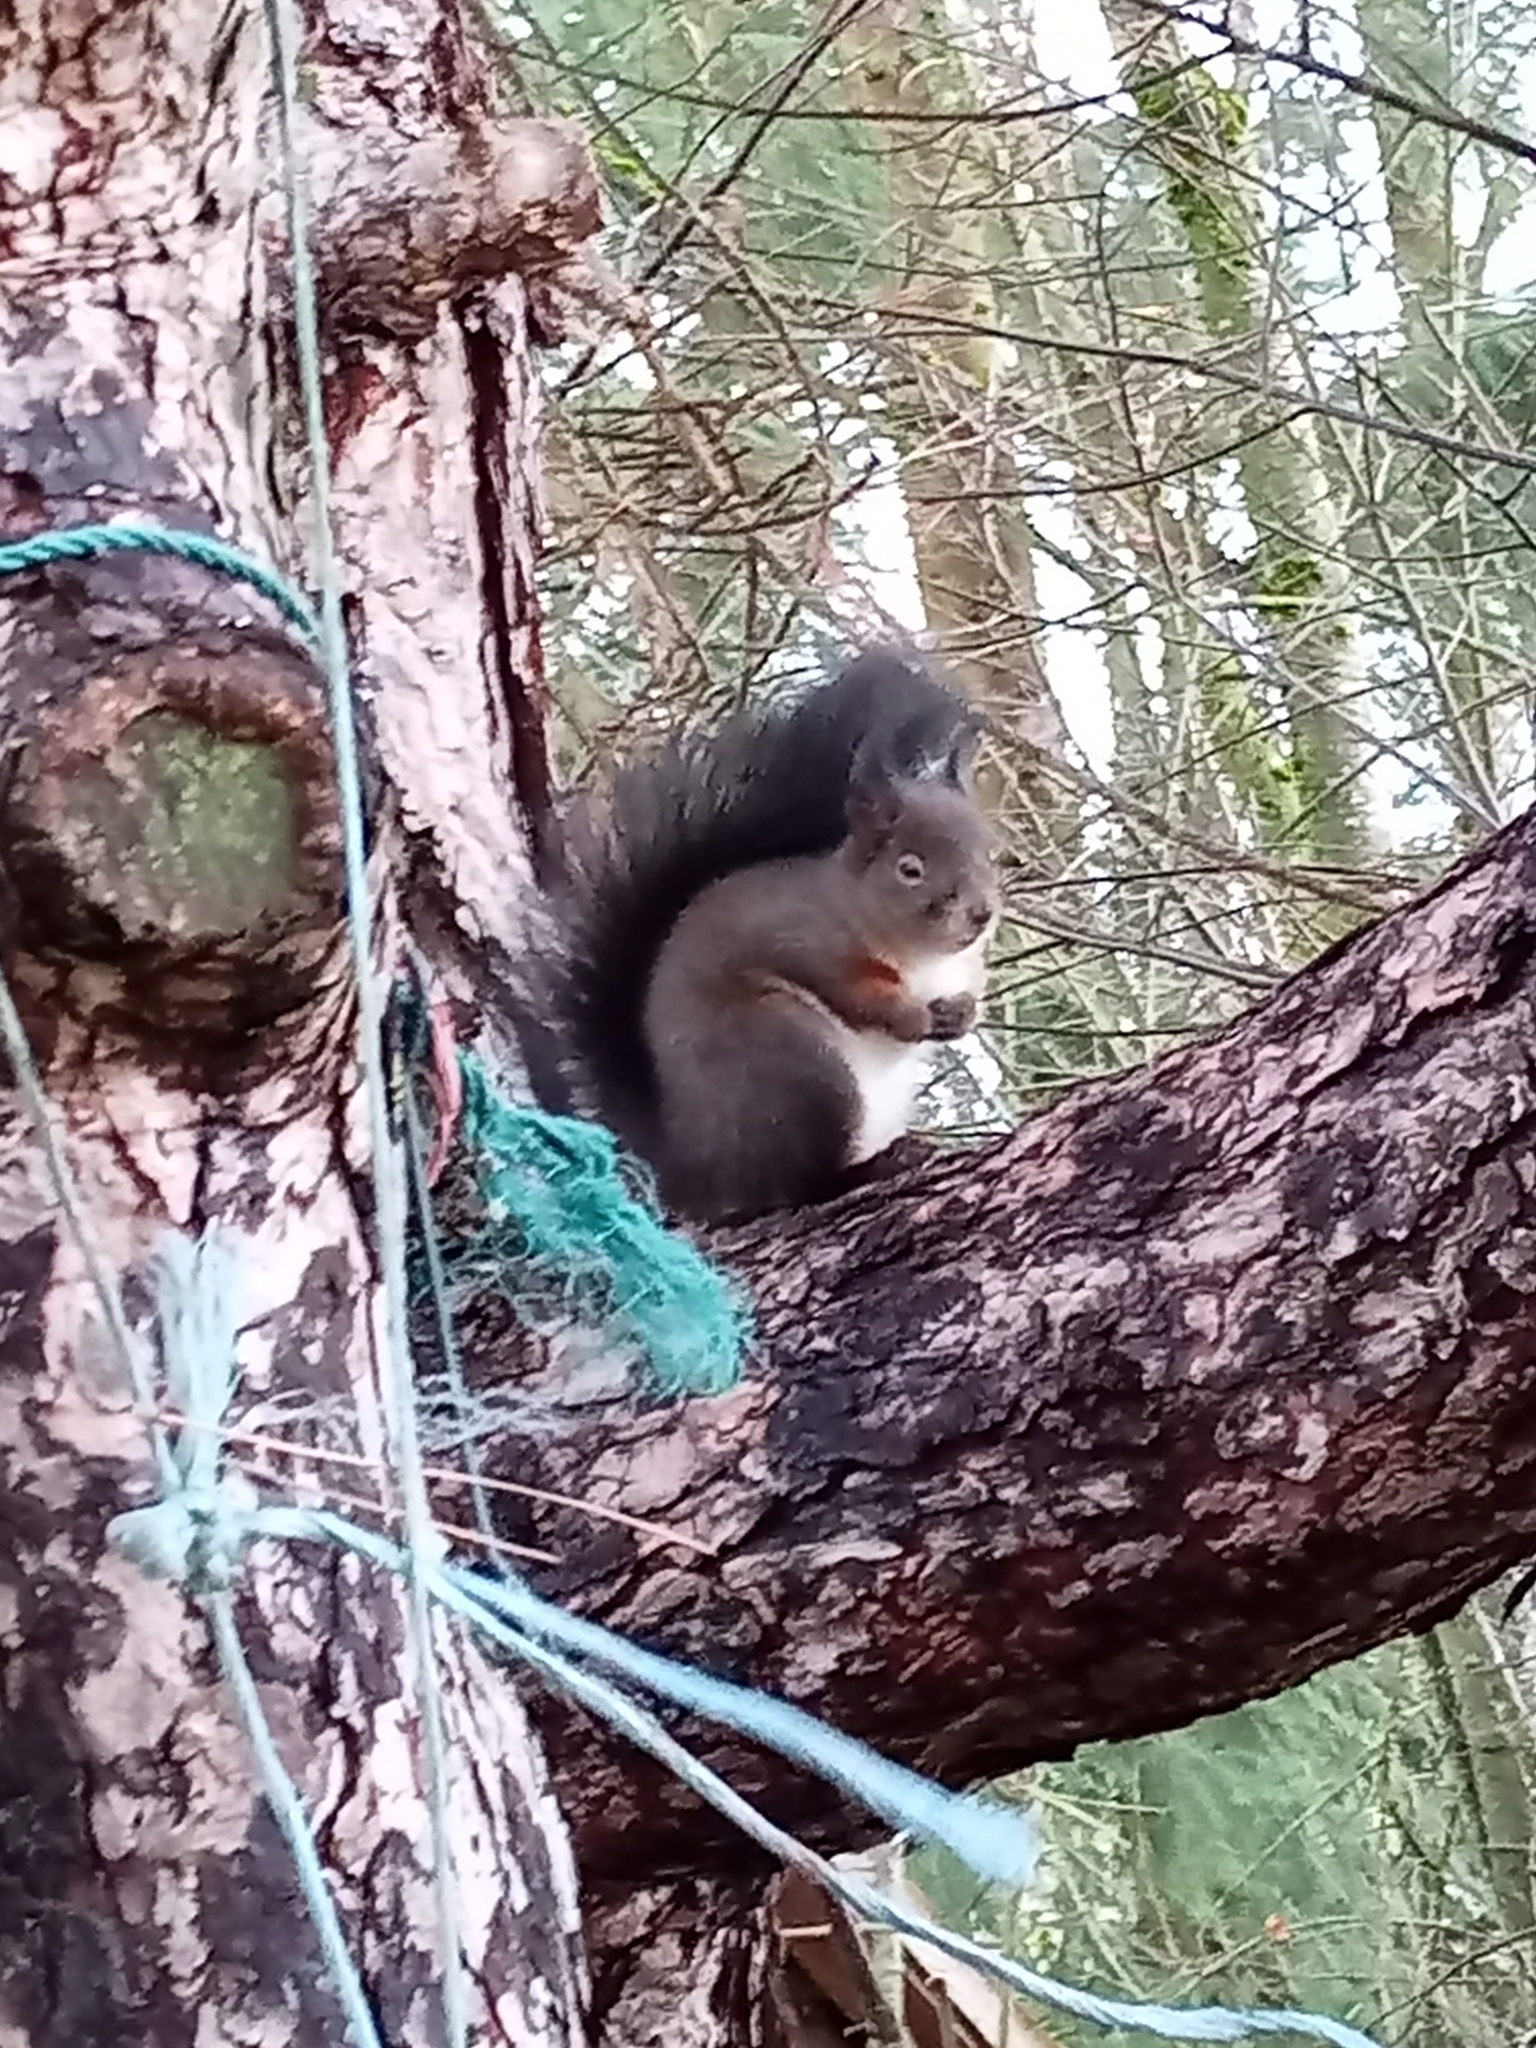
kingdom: Animalia
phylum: Chordata
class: Mammalia
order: Rodentia
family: Sciuridae
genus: Sciurus
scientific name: Sciurus vulgaris
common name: Eurasian red squirrel
